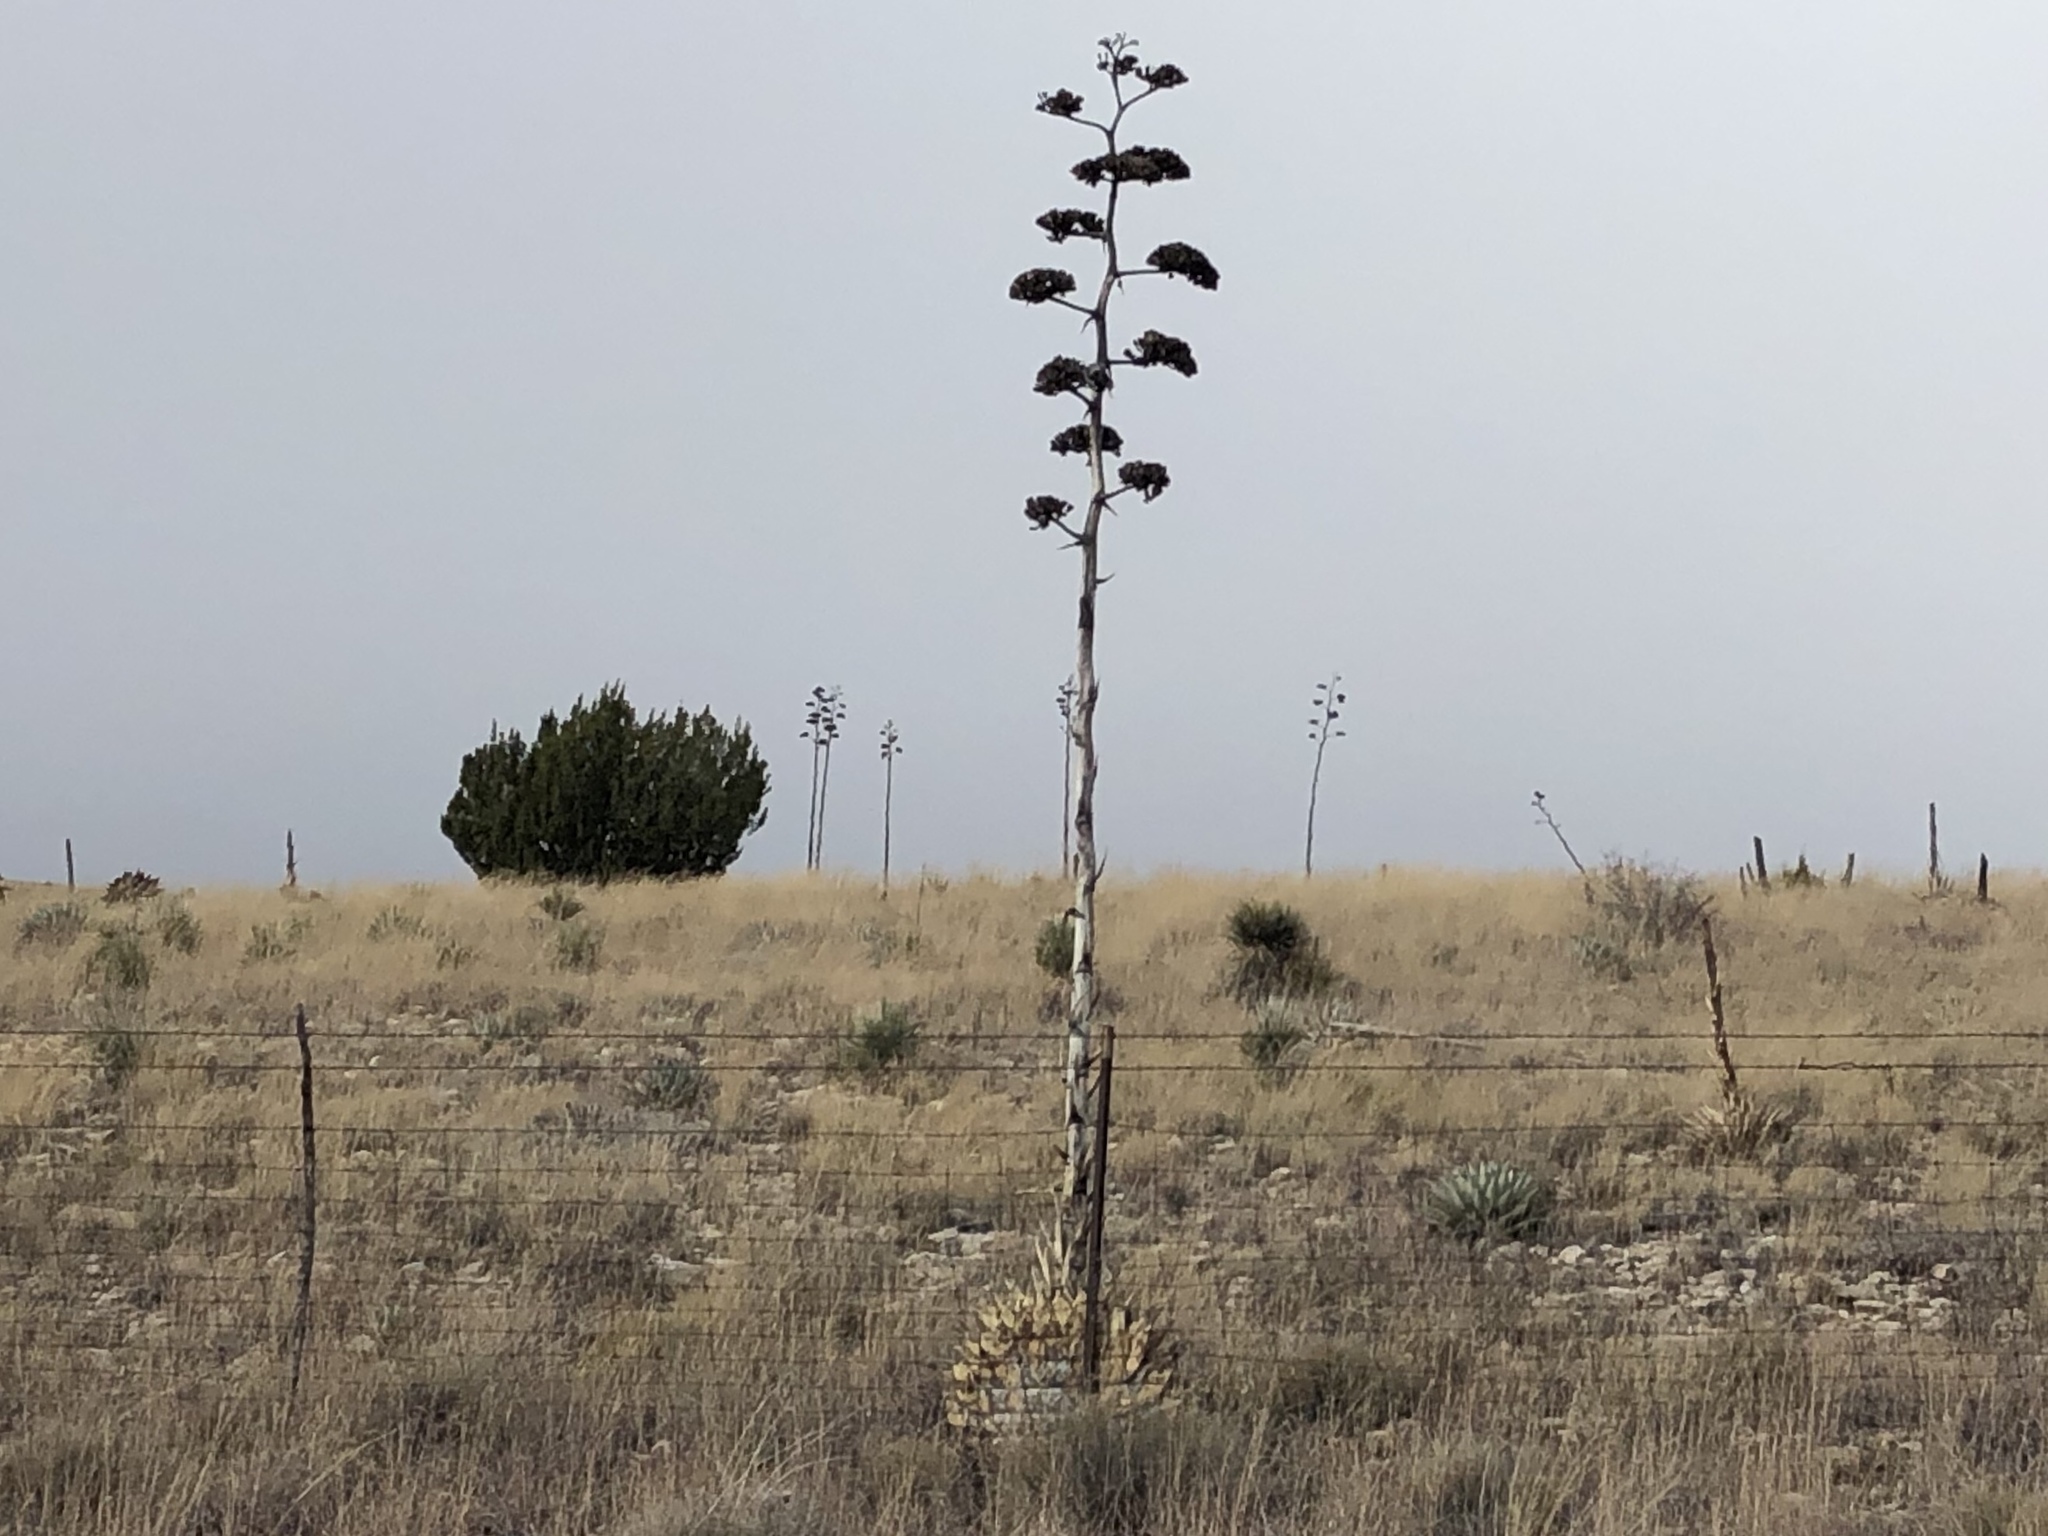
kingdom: Plantae
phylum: Tracheophyta
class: Liliopsida
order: Asparagales
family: Asparagaceae
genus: Agave
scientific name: Agave parryi
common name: Parry's agave
